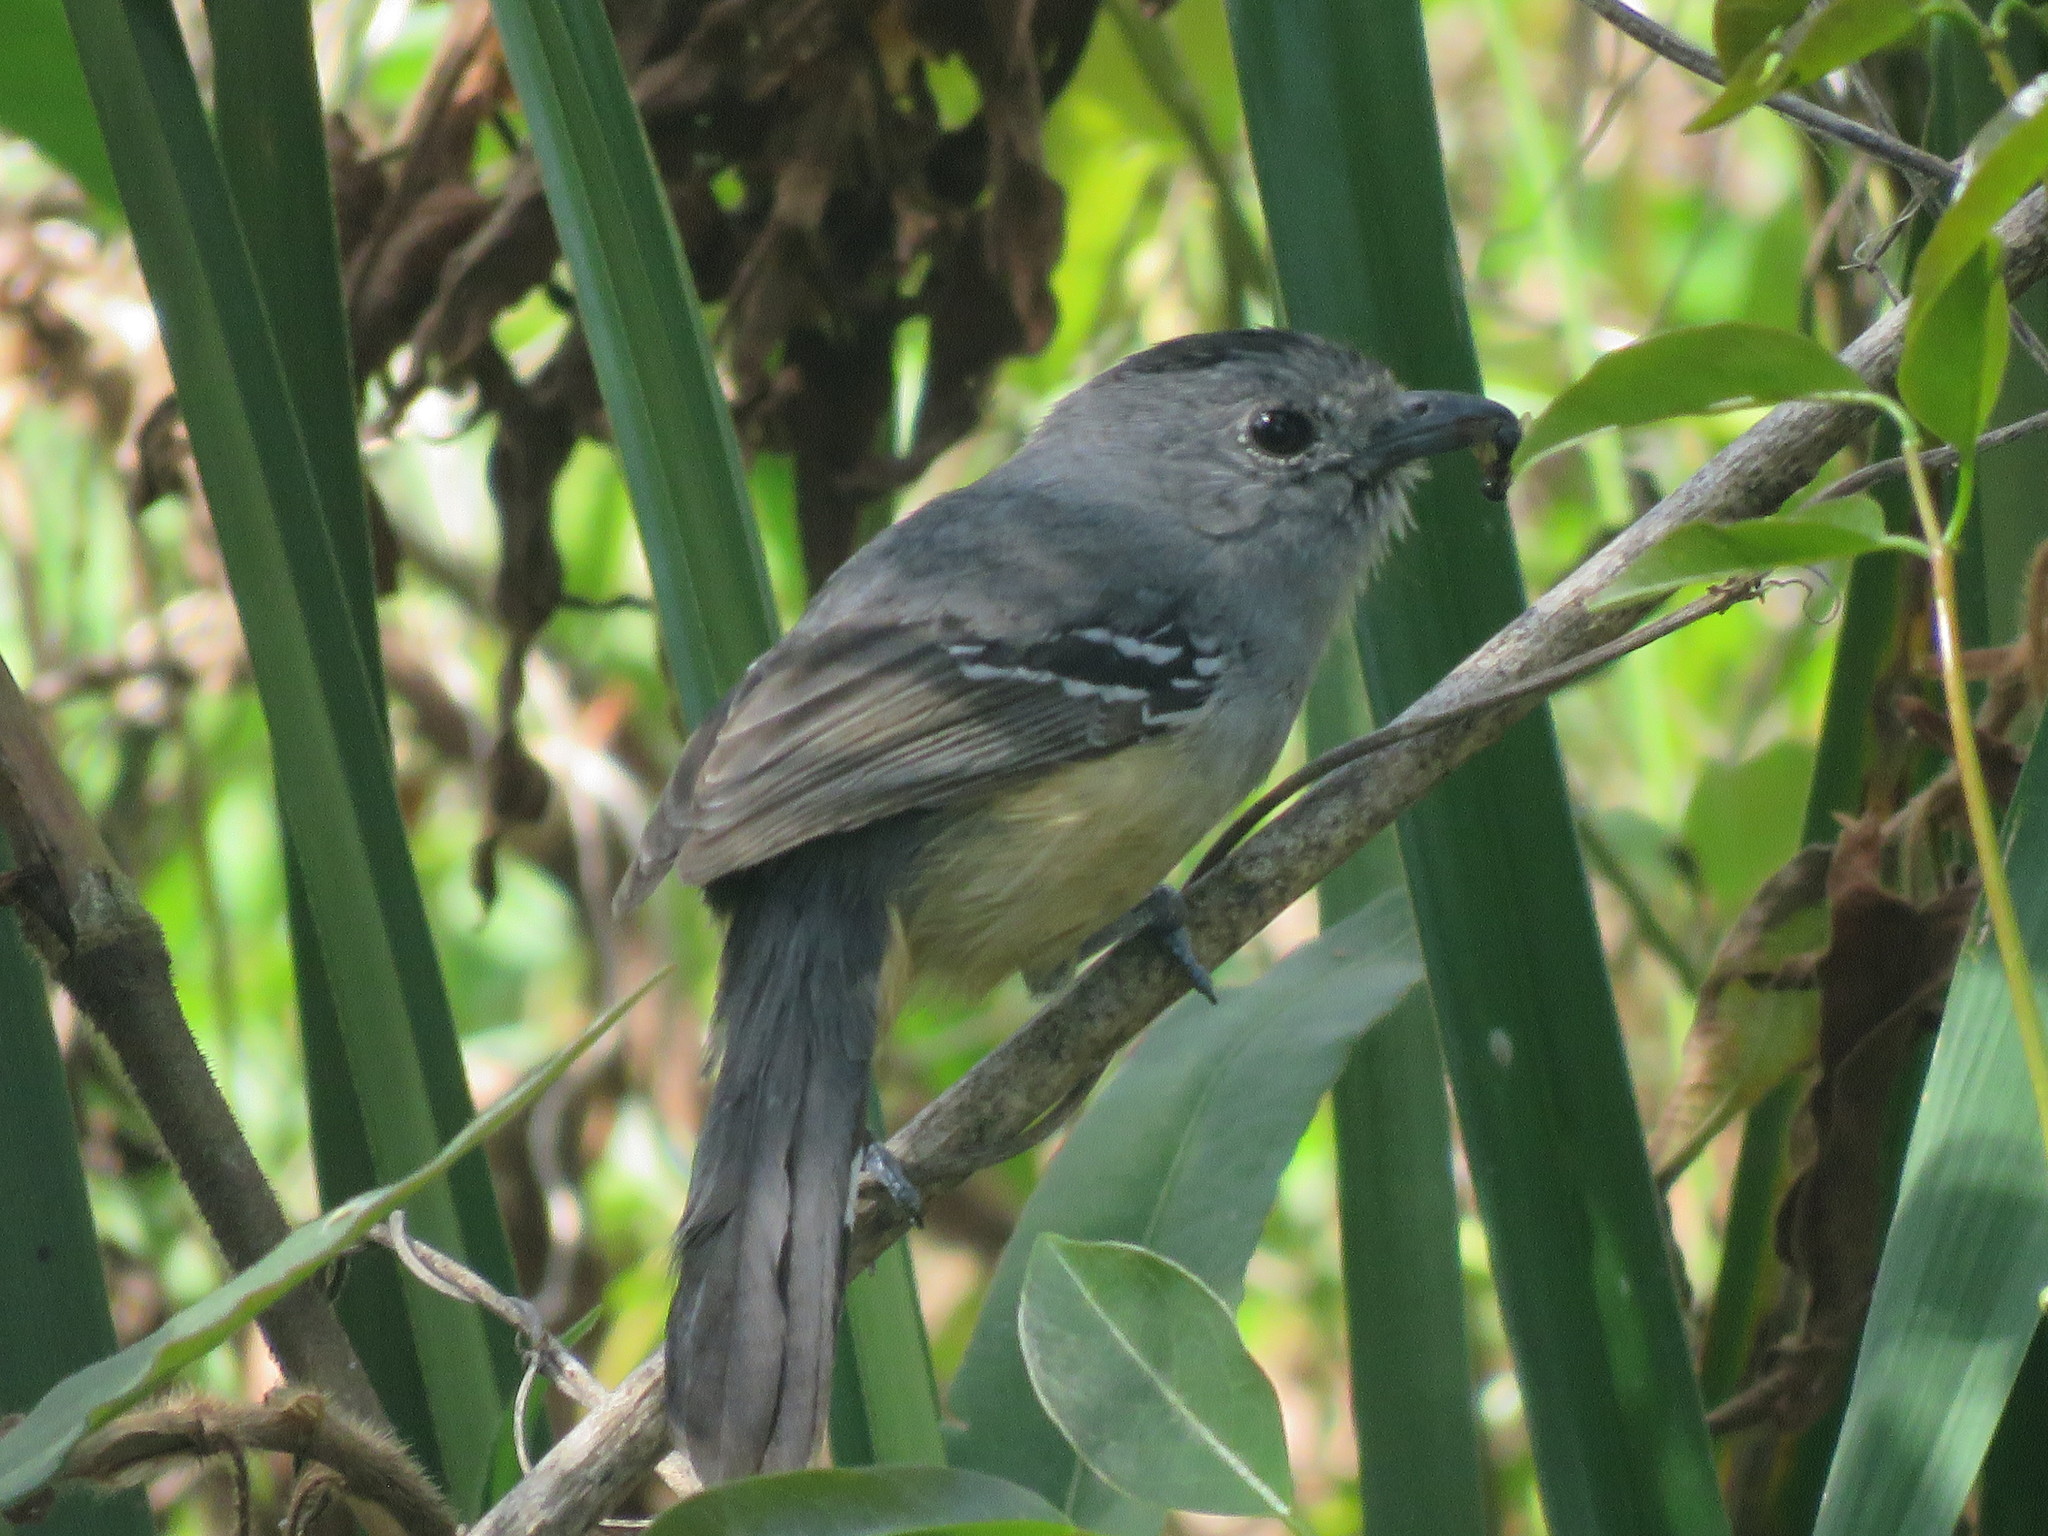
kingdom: Animalia
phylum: Chordata
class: Aves
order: Passeriformes
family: Thamnophilidae
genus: Thamnophilus
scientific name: Thamnophilus caerulescens
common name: Variable antshrike
